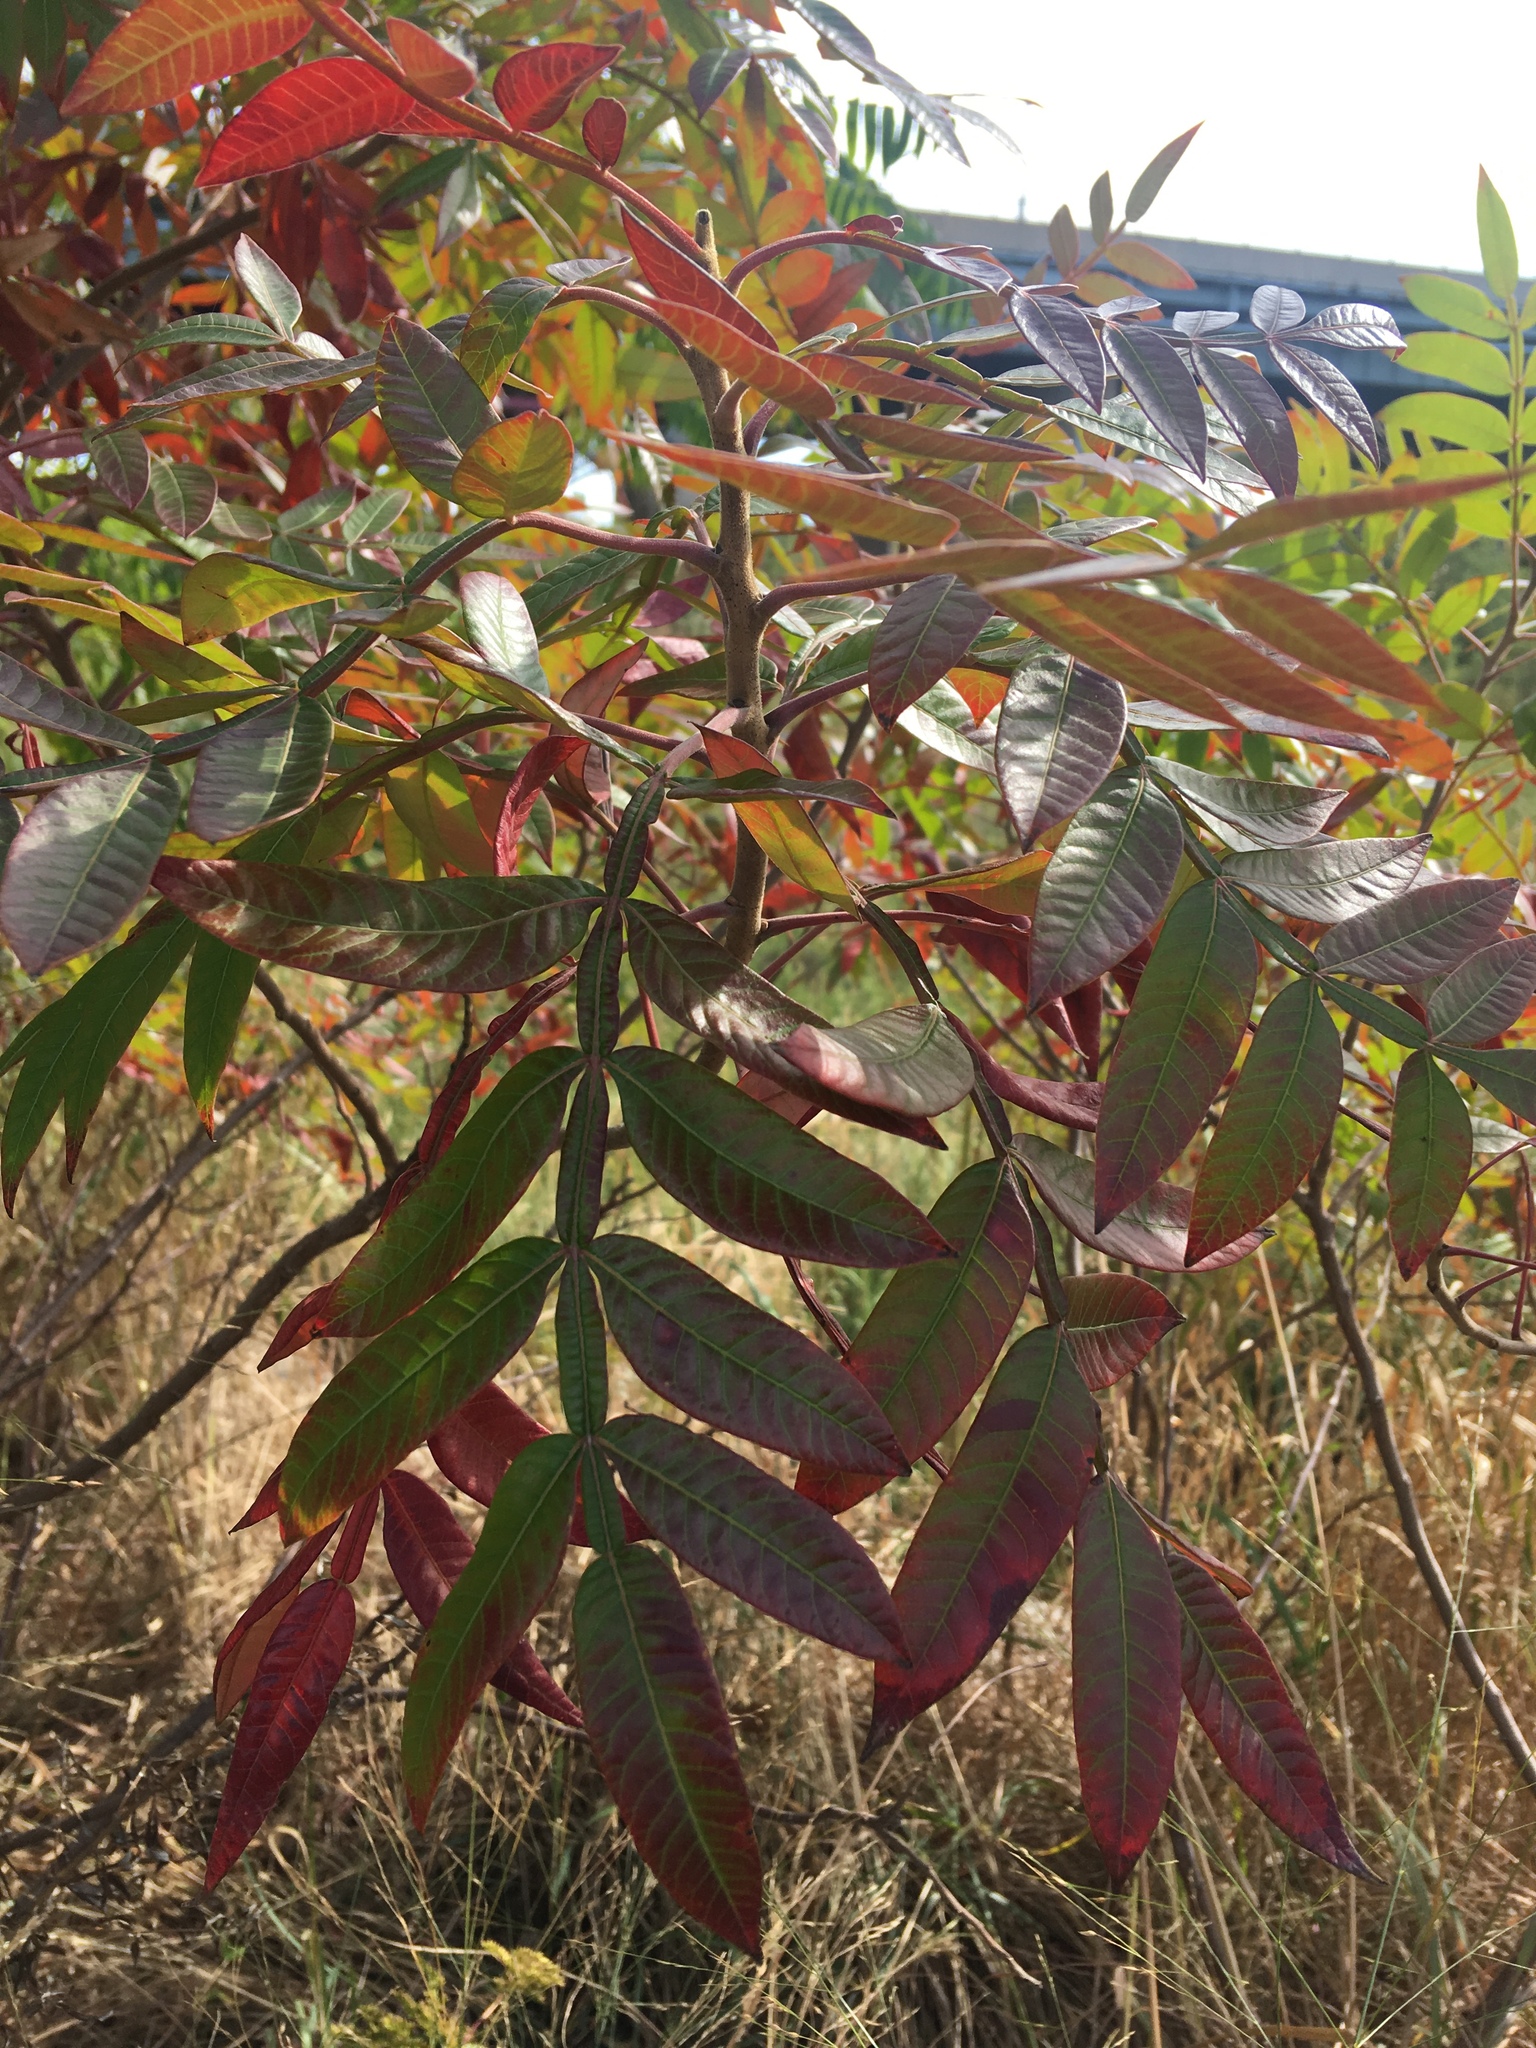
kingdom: Plantae
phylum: Tracheophyta
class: Magnoliopsida
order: Sapindales
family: Anacardiaceae
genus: Rhus
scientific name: Rhus copallina
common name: Shining sumac
